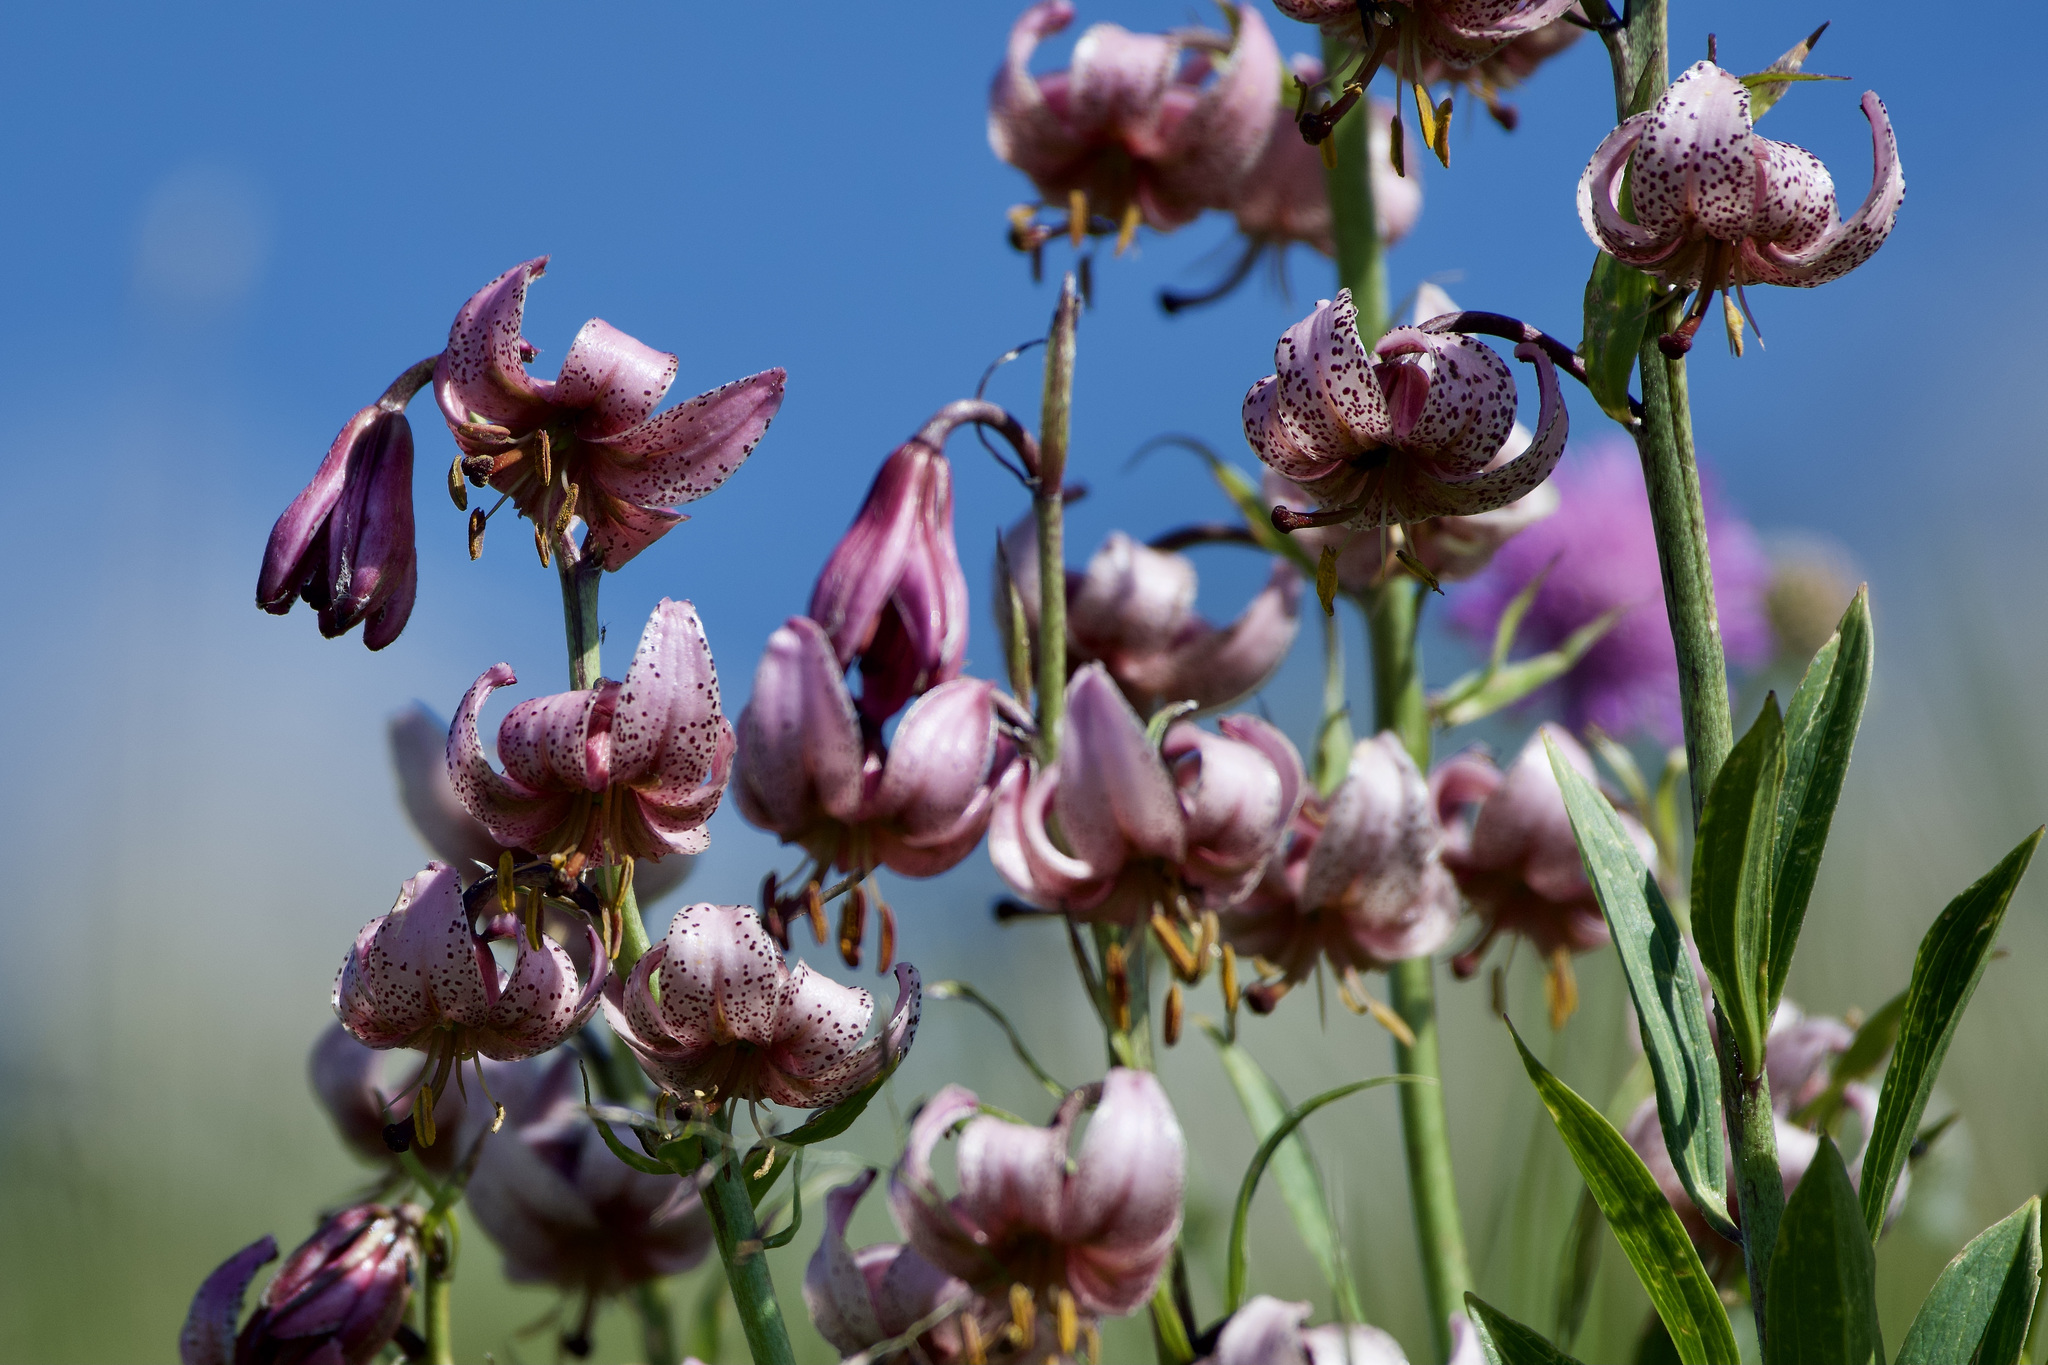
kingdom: Plantae
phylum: Tracheophyta
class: Liliopsida
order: Liliales
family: Liliaceae
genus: Lilium
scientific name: Lilium martagon
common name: Martagon lily
